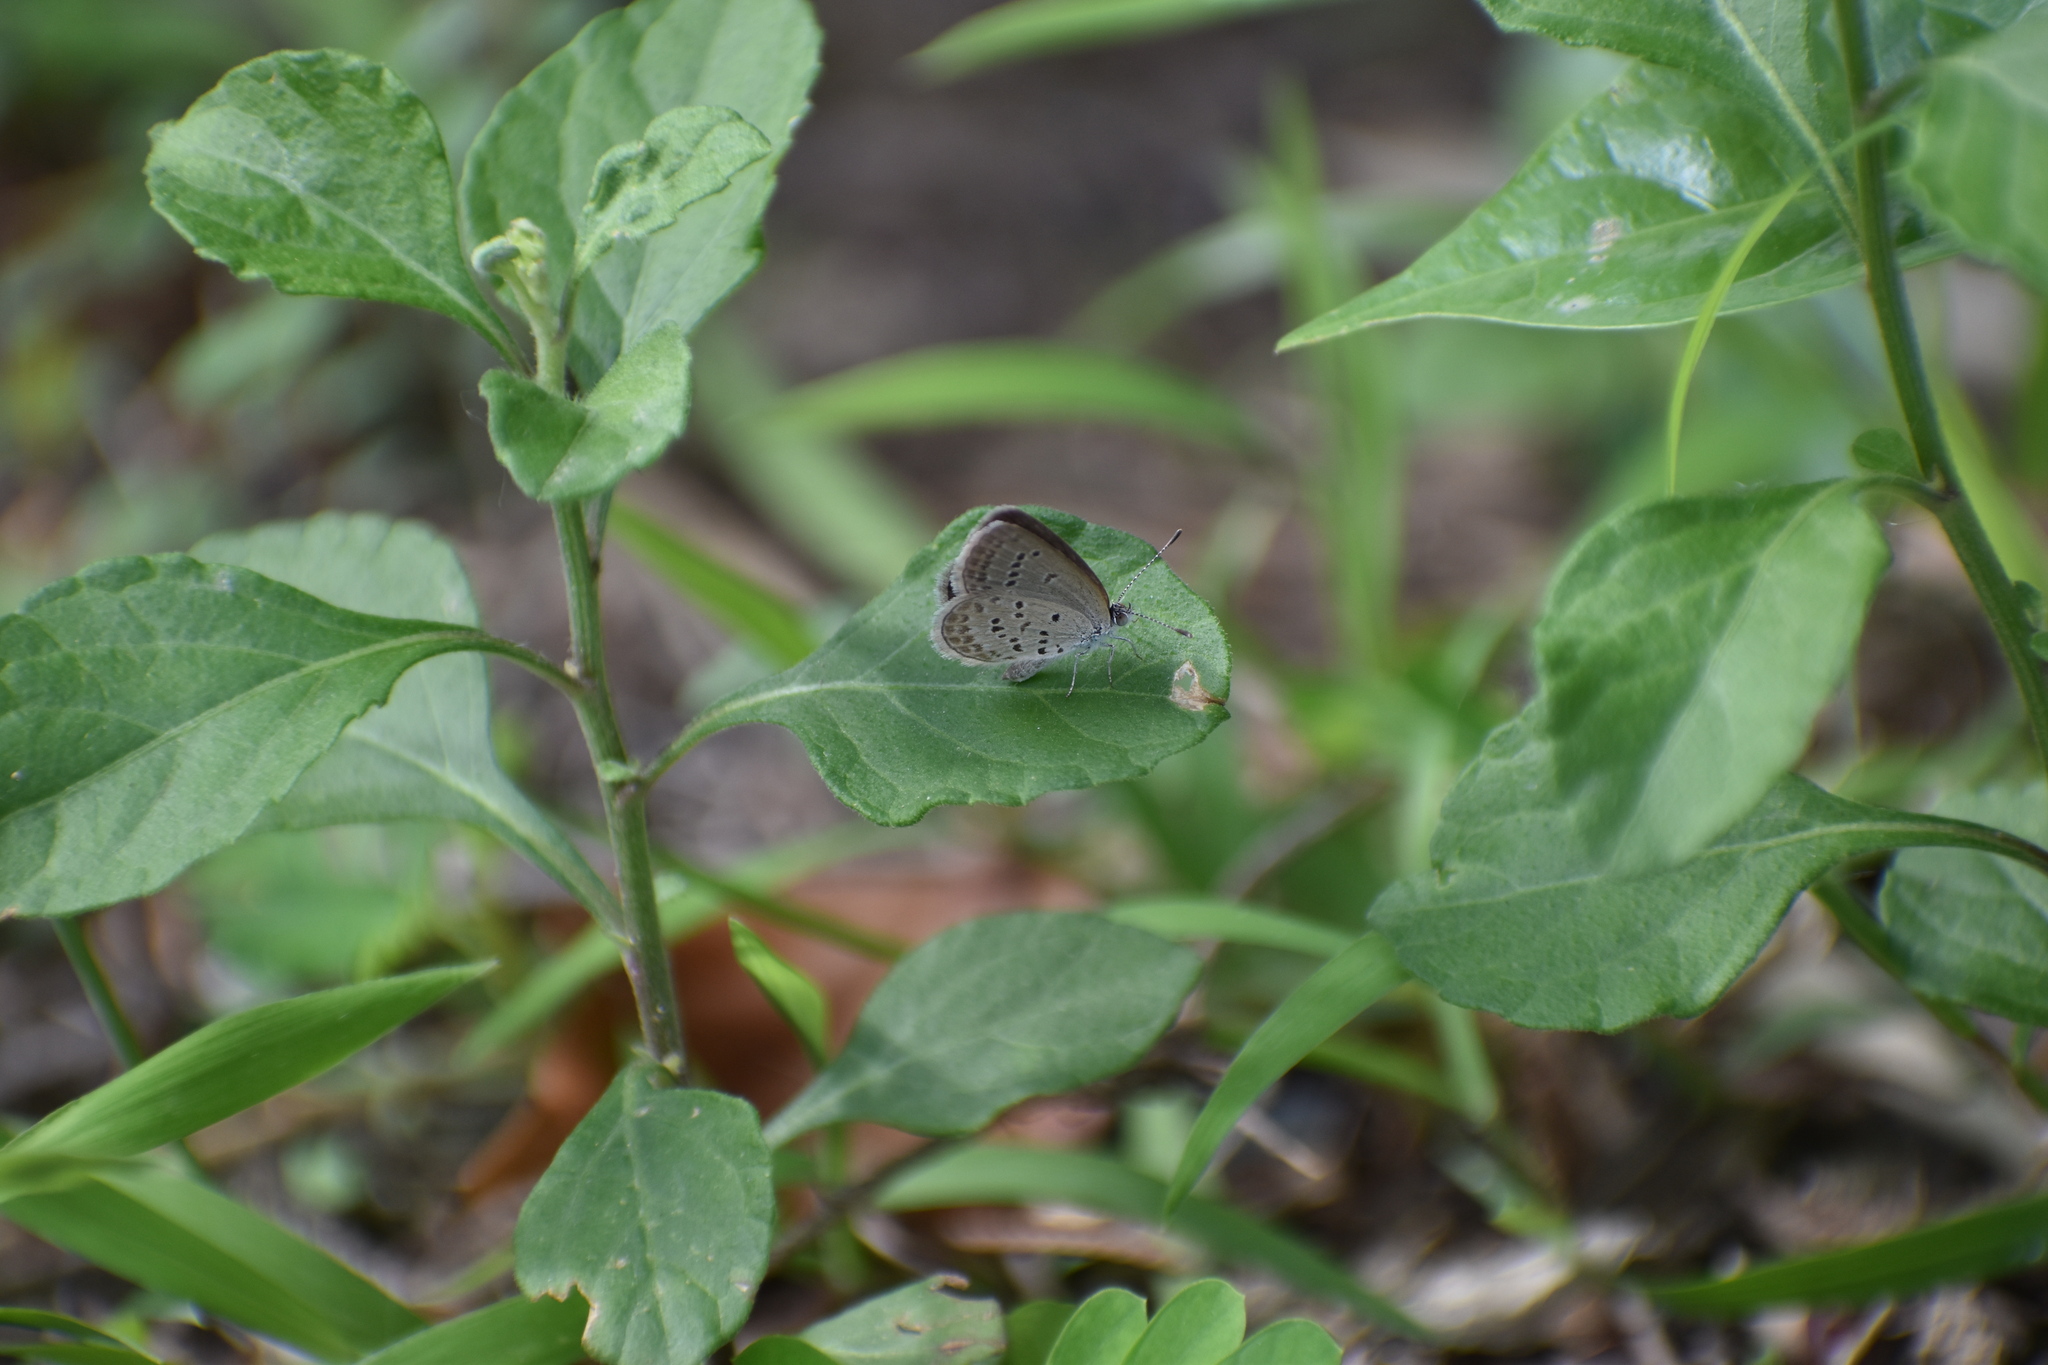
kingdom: Animalia
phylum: Arthropoda
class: Insecta
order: Lepidoptera
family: Lycaenidae
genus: Zizina
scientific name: Zizina otis
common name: Lesser grass blue
